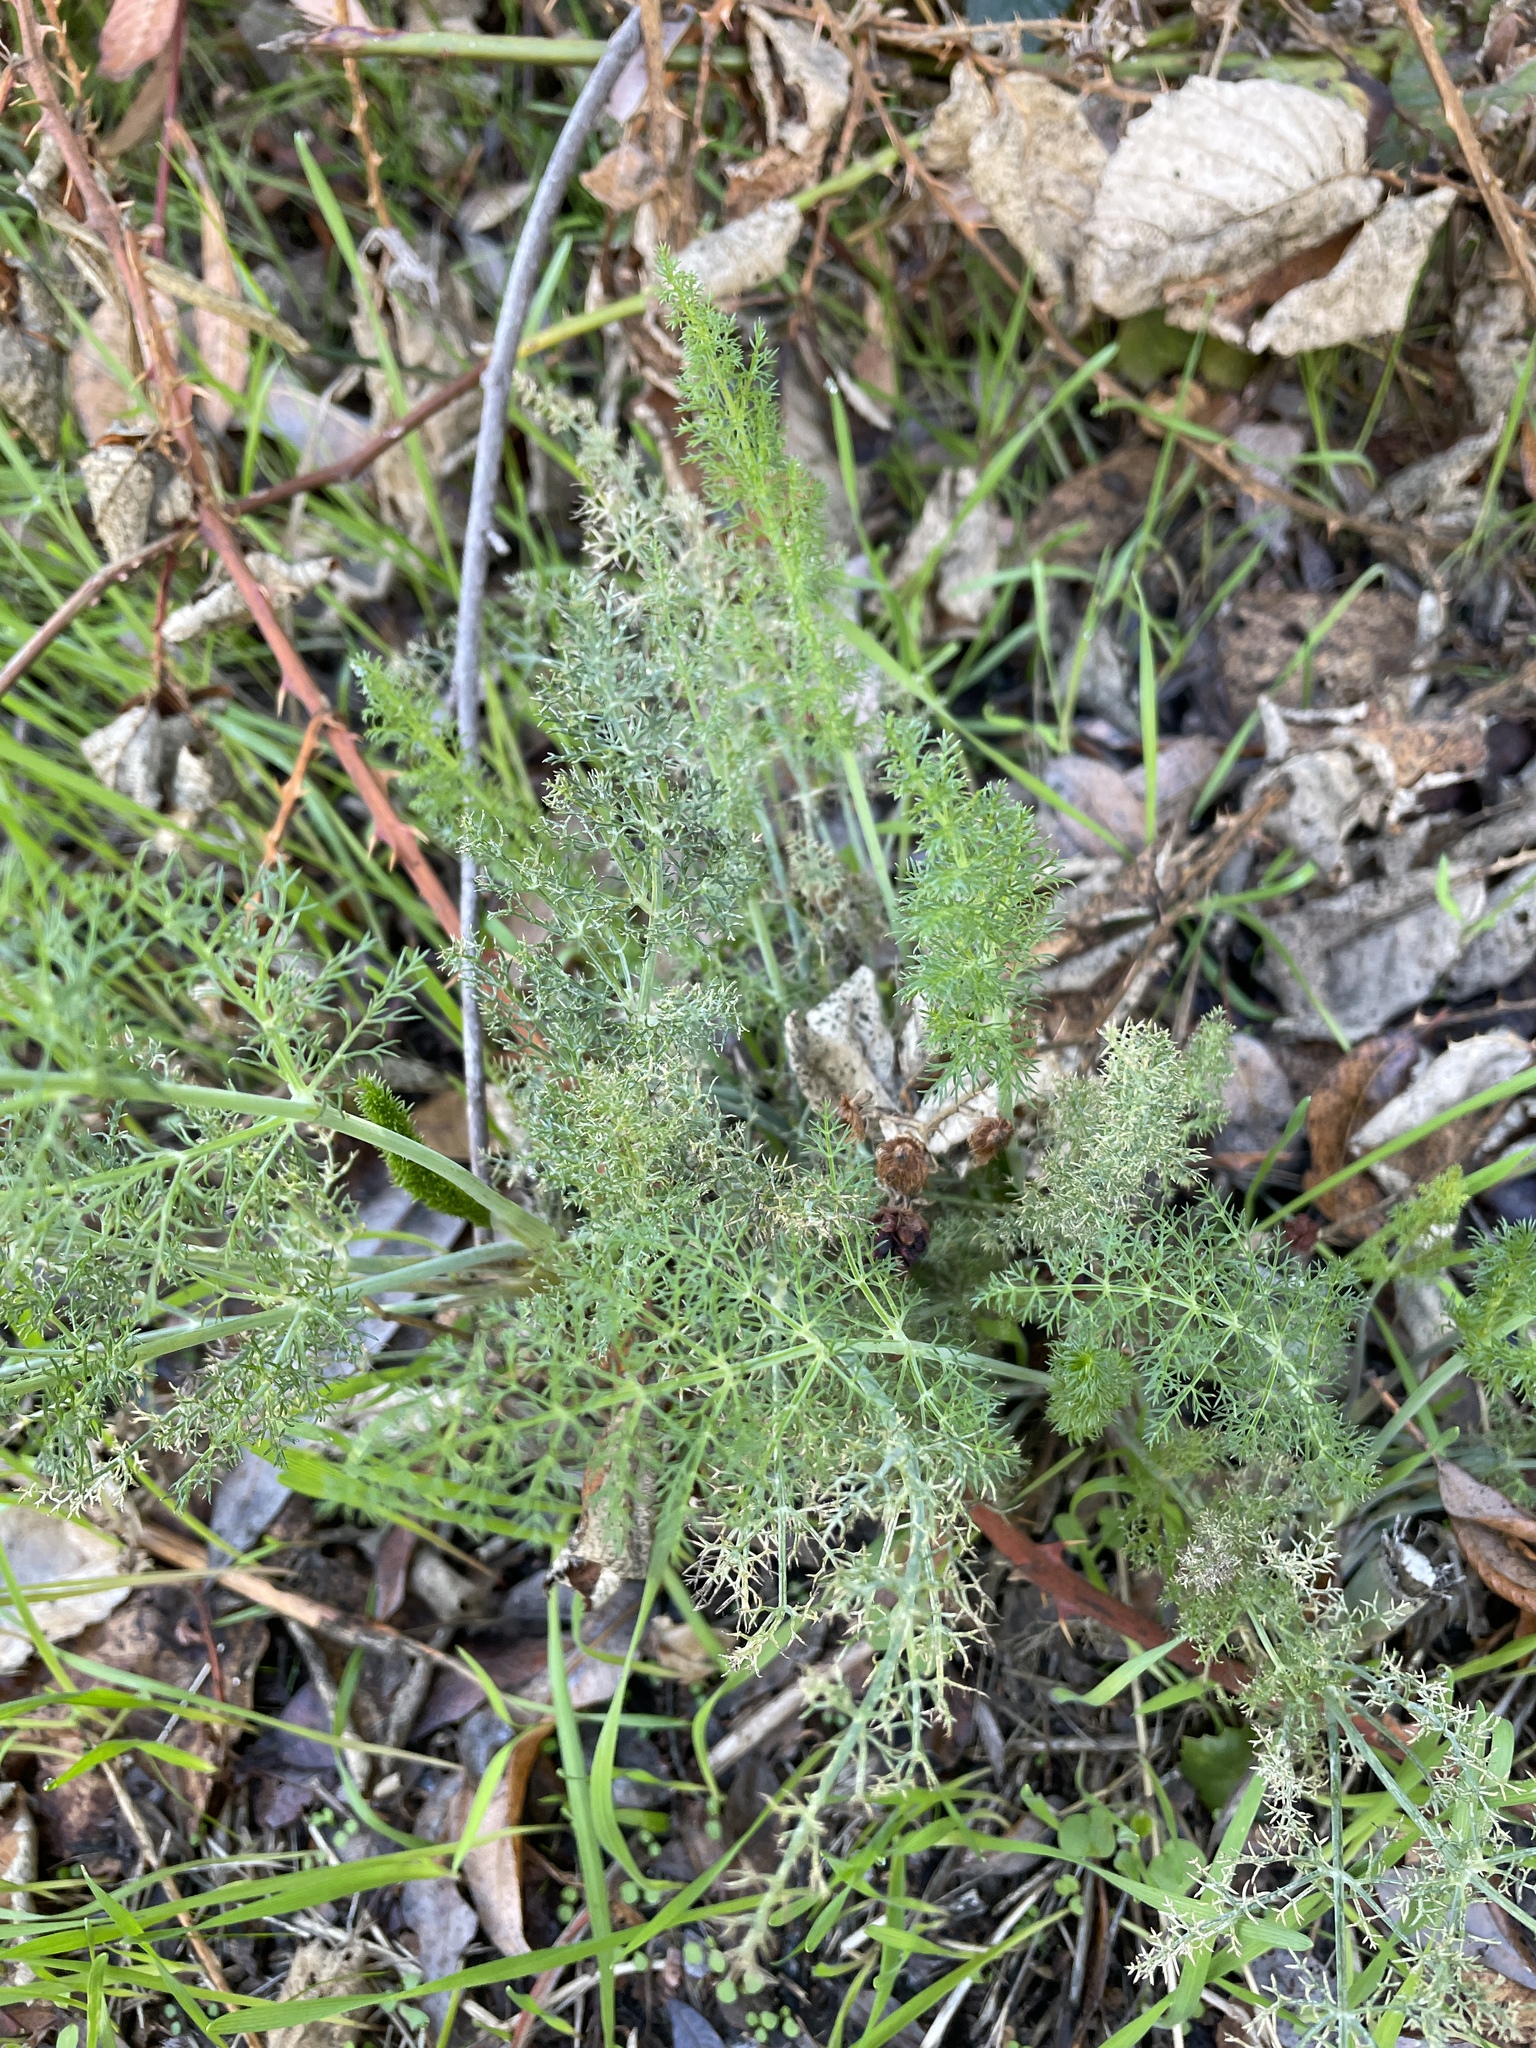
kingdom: Plantae
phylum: Tracheophyta
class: Magnoliopsida
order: Apiales
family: Apiaceae
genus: Foeniculum
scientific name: Foeniculum vulgare
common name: Fennel
